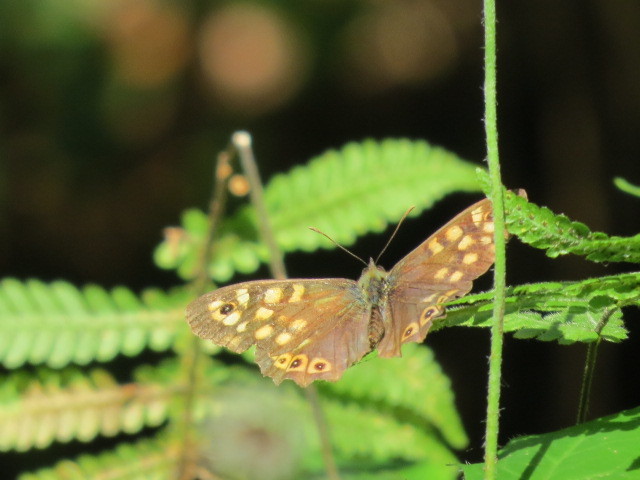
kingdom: Animalia
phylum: Arthropoda
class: Insecta
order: Lepidoptera
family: Nymphalidae
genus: Pararge
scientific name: Pararge aegeria
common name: Speckled wood
